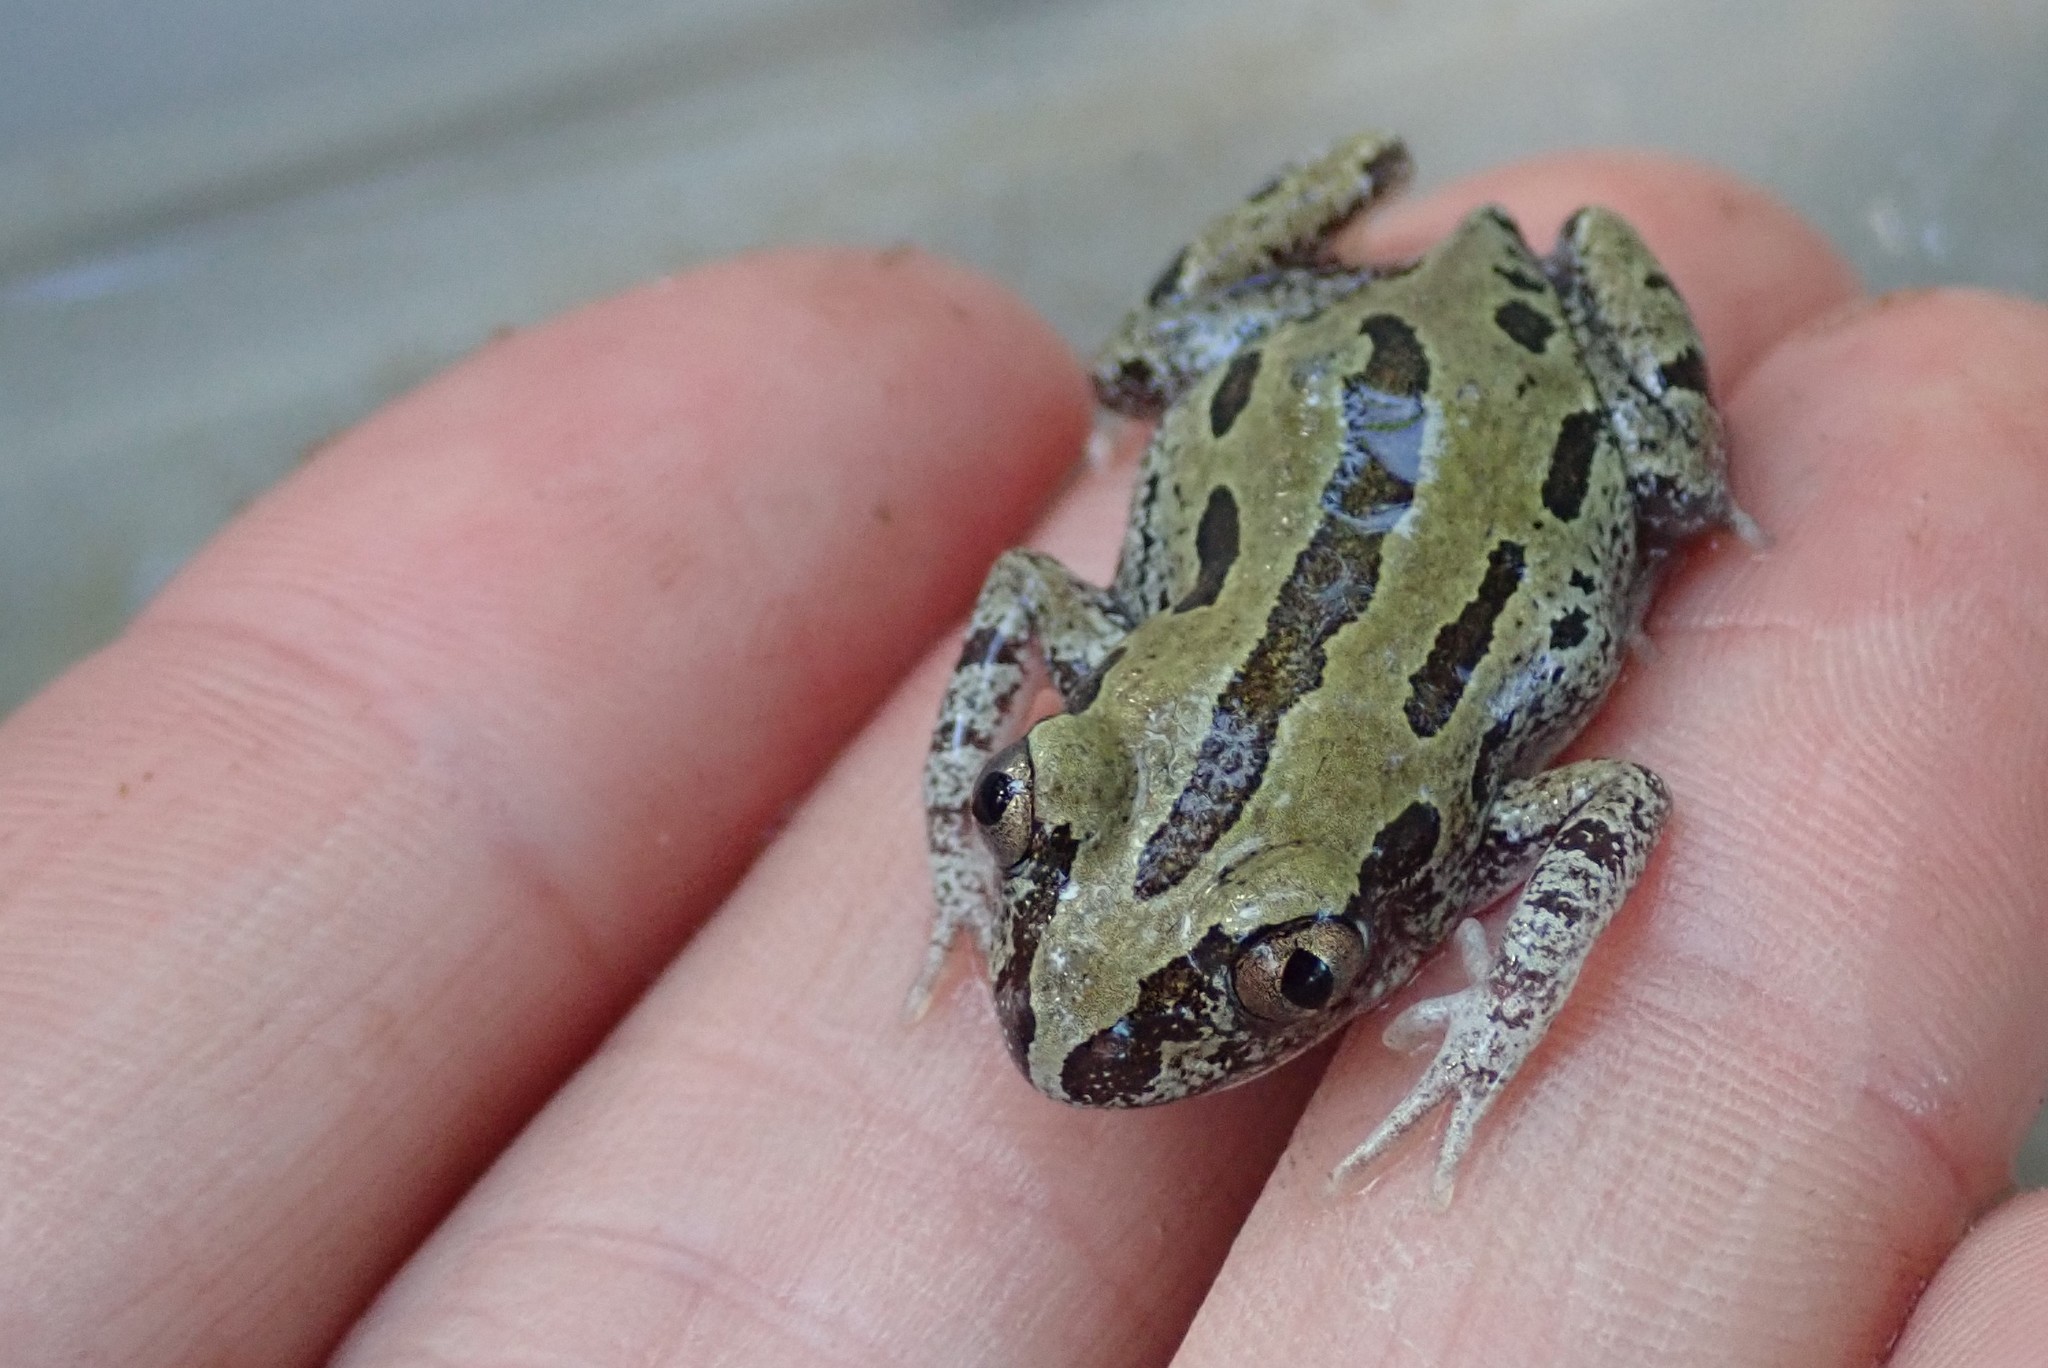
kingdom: Animalia
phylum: Chordata
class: Amphibia
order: Anura
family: Hyperoliidae
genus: Kassina
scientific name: Kassina senegalensis
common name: Senegal land frog
